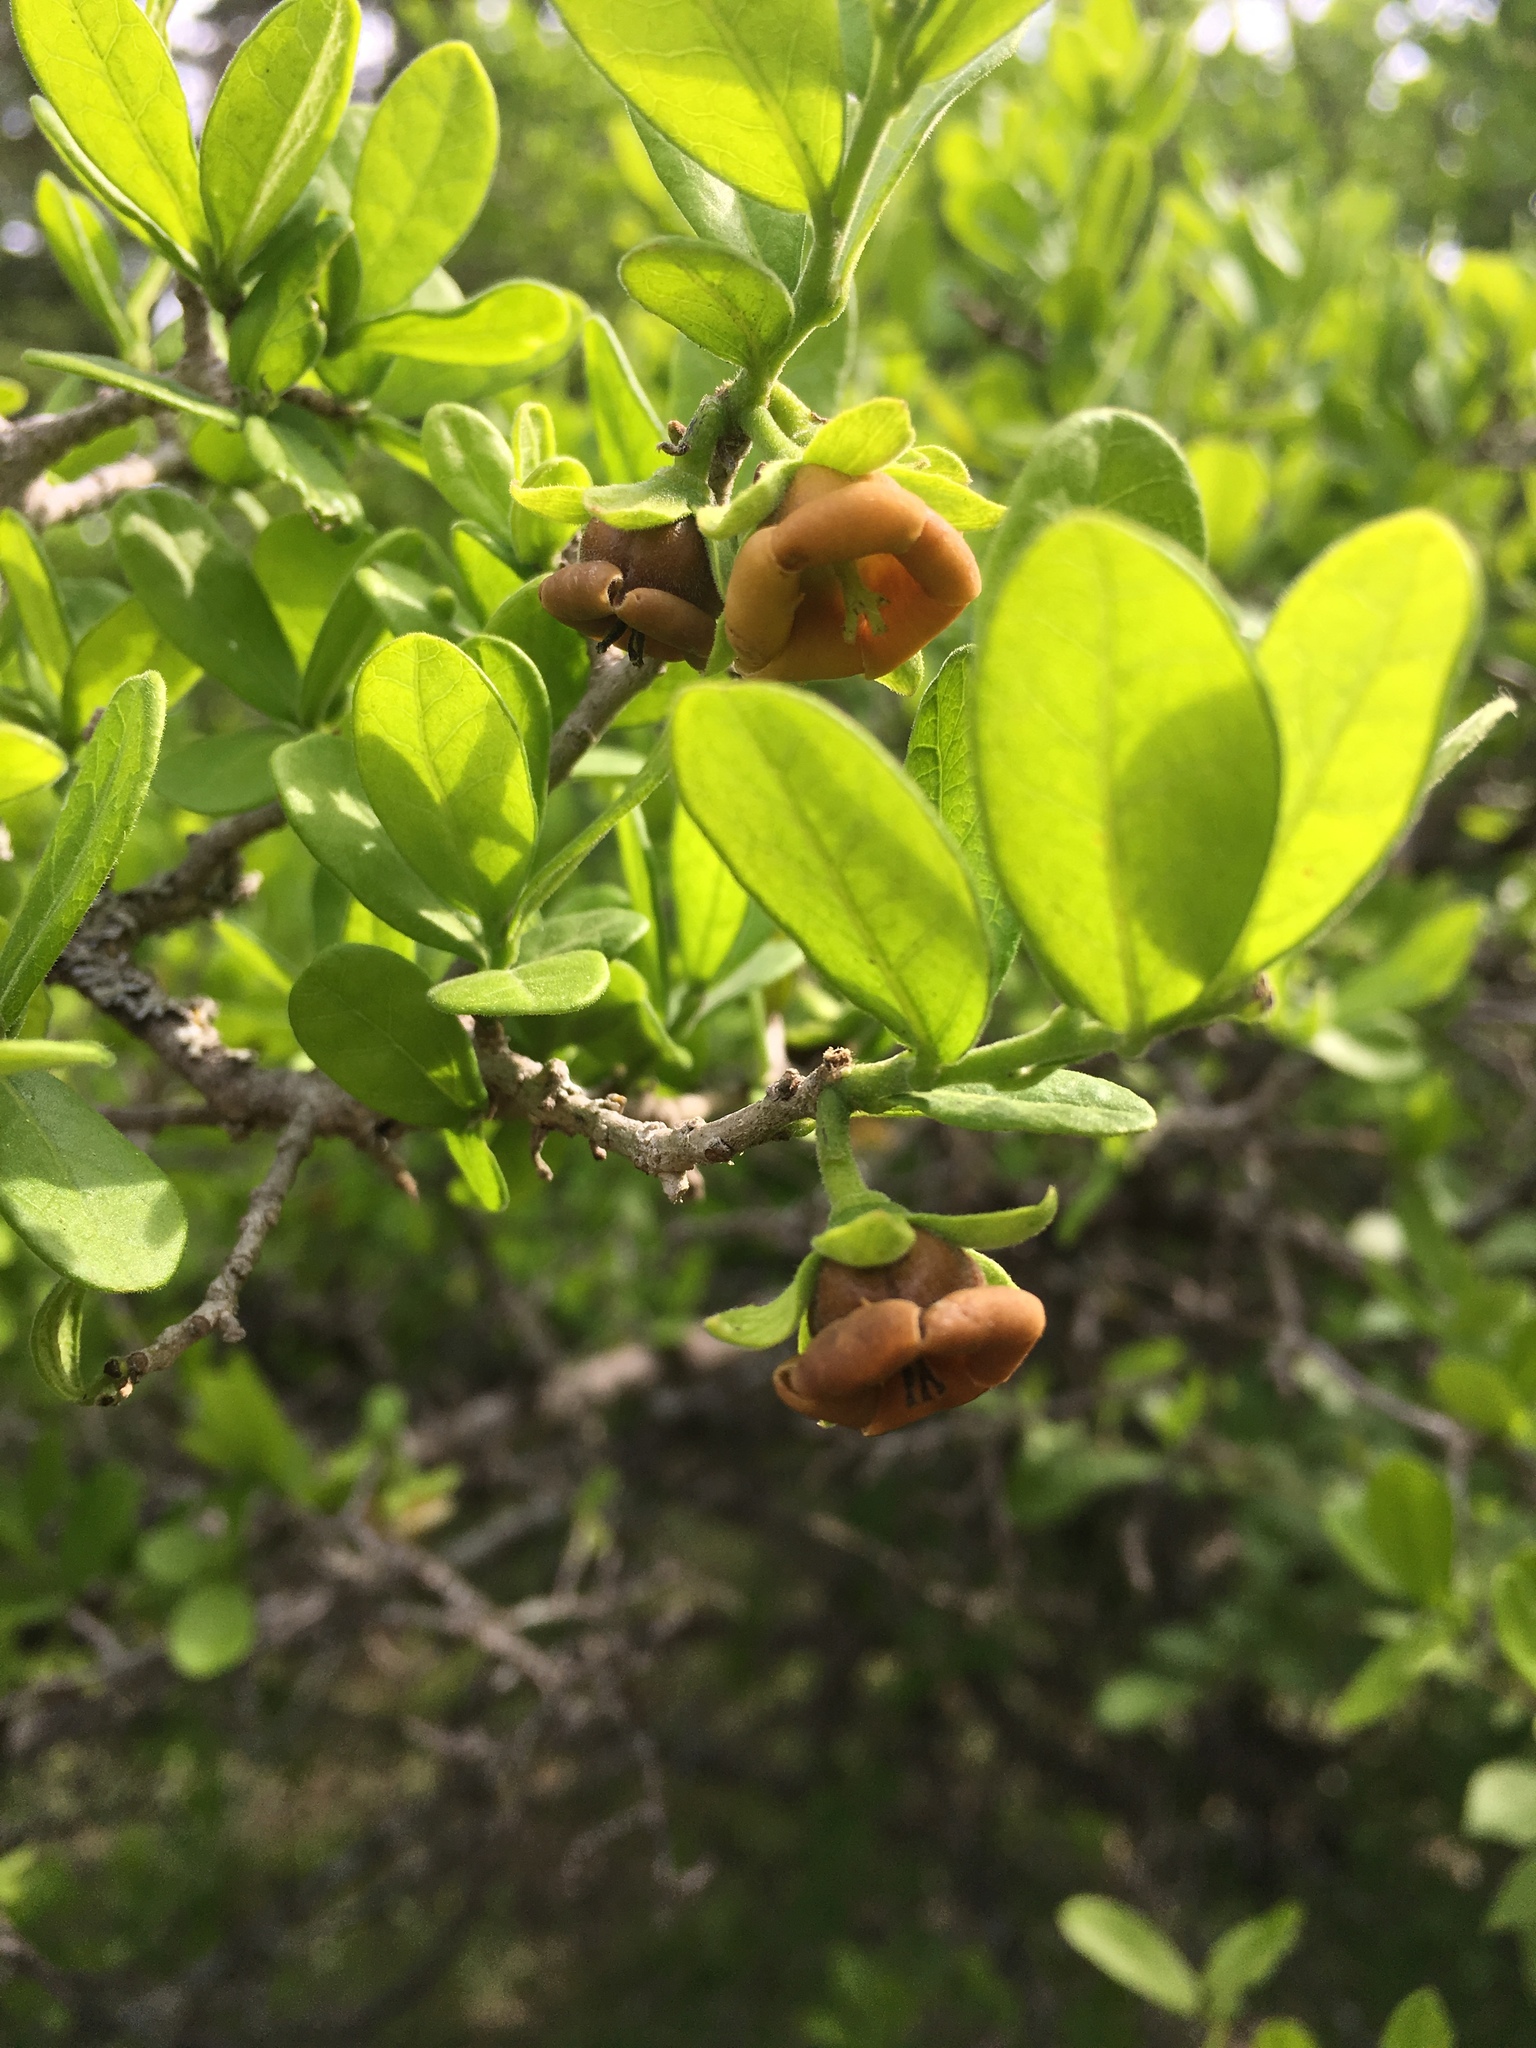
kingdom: Plantae
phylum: Tracheophyta
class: Magnoliopsida
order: Ericales
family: Ebenaceae
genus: Diospyros
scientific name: Diospyros texana
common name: Texas persimmon
